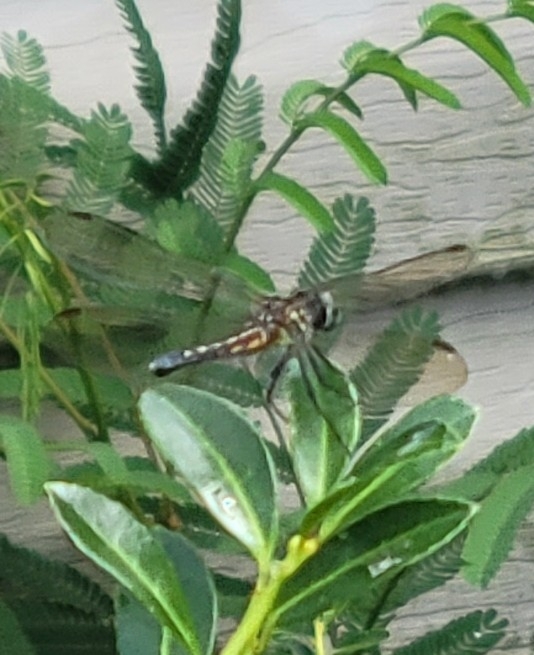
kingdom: Animalia
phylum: Arthropoda
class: Insecta
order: Odonata
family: Libellulidae
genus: Pachydiplax
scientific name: Pachydiplax longipennis
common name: Blue dasher
